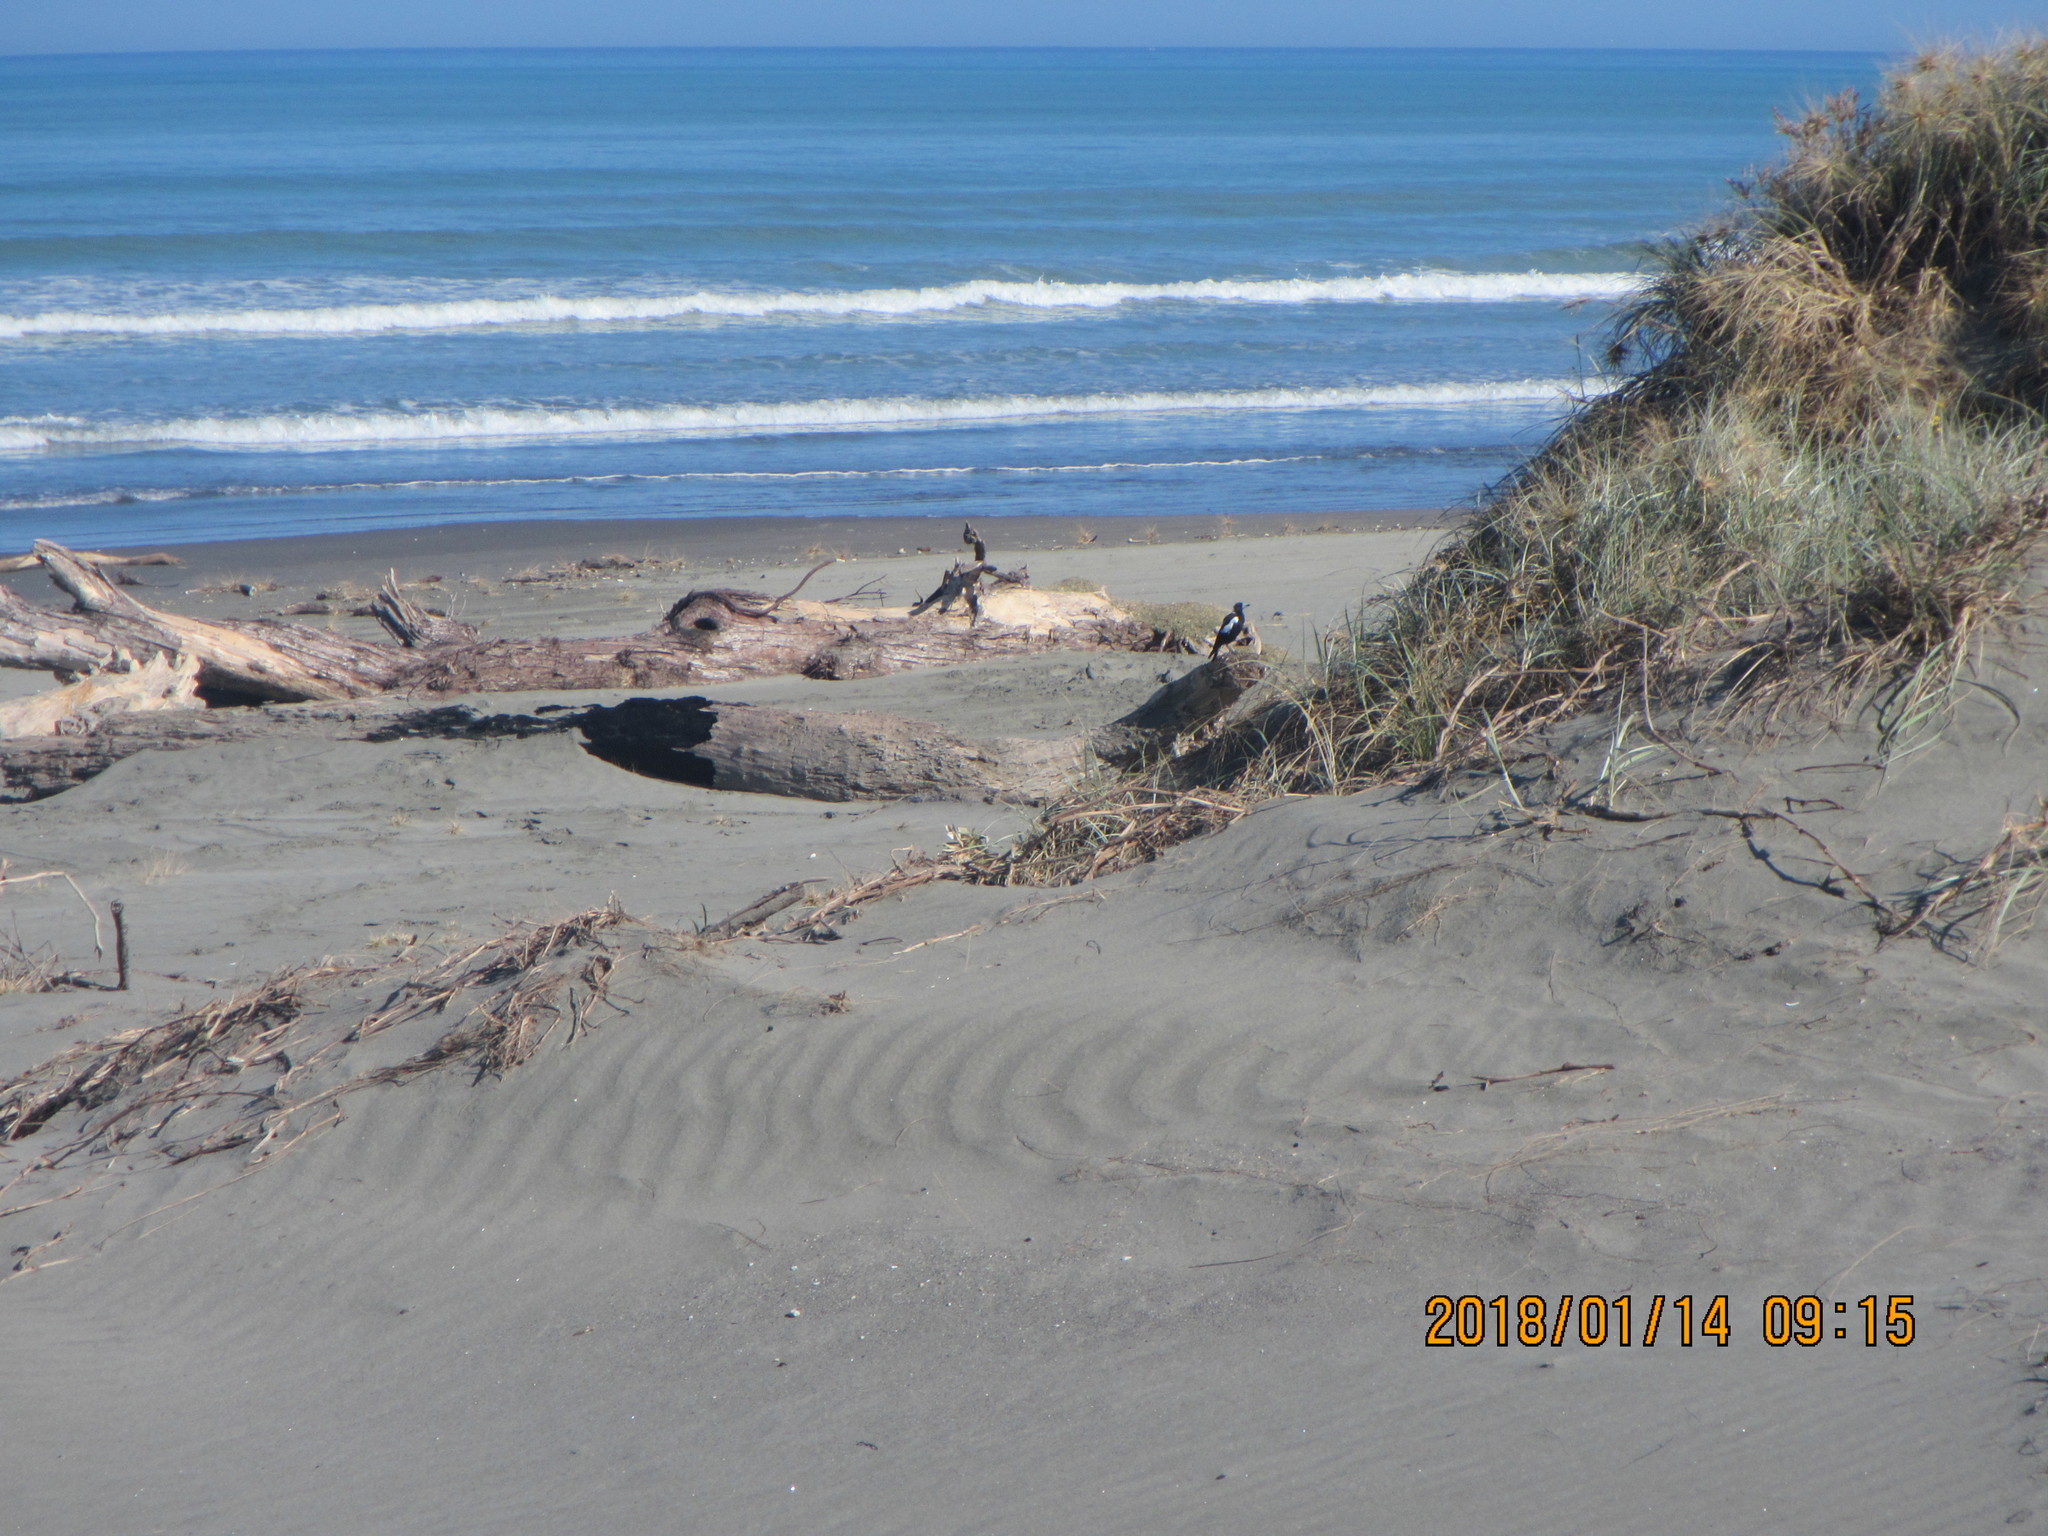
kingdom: Animalia
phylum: Chordata
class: Aves
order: Passeriformes
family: Cracticidae
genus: Gymnorhina
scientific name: Gymnorhina tibicen
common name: Australian magpie
